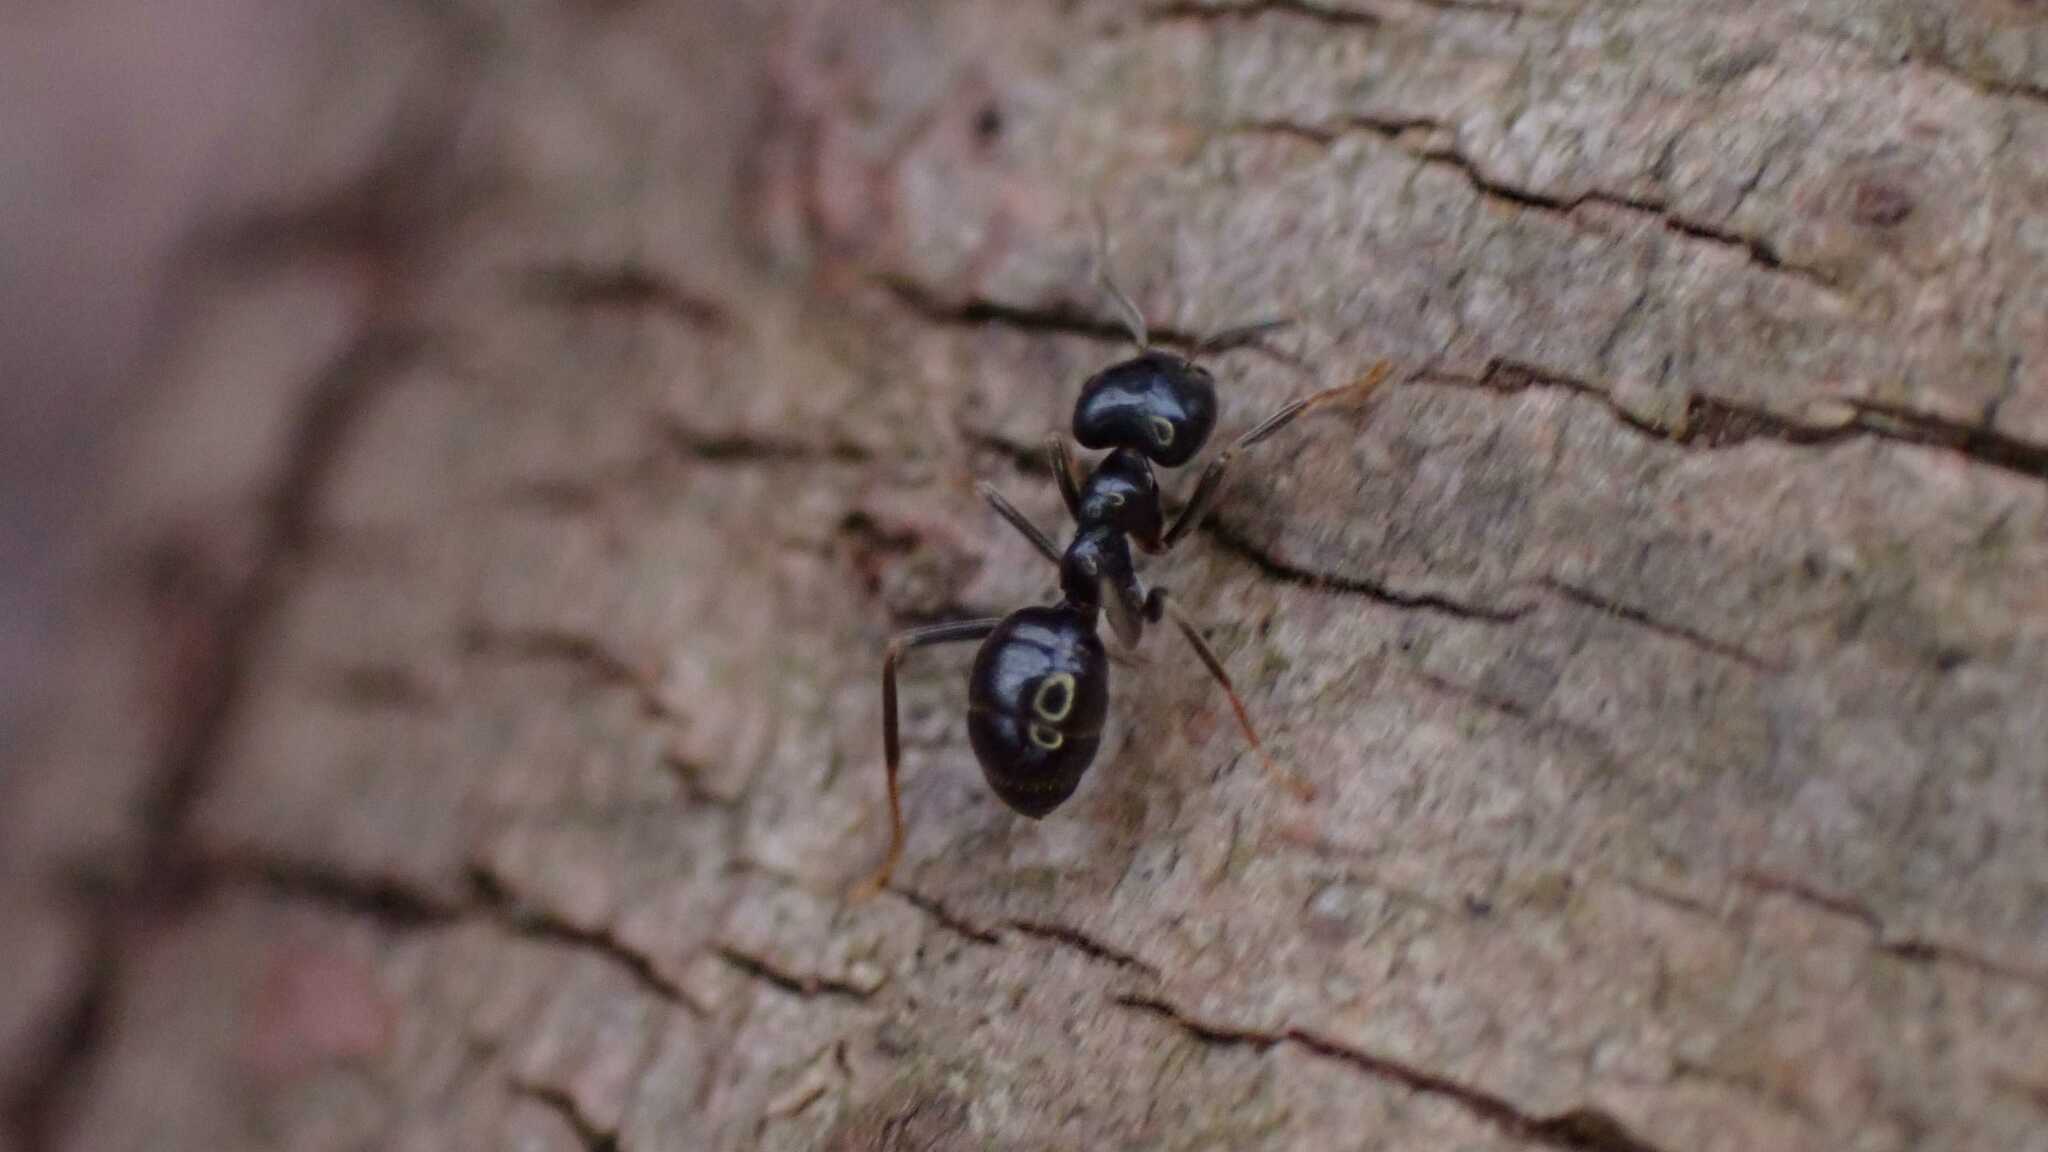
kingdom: Animalia
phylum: Arthropoda
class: Insecta
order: Hymenoptera
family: Formicidae
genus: Lasius
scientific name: Lasius fuliginosus
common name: Jet ant
